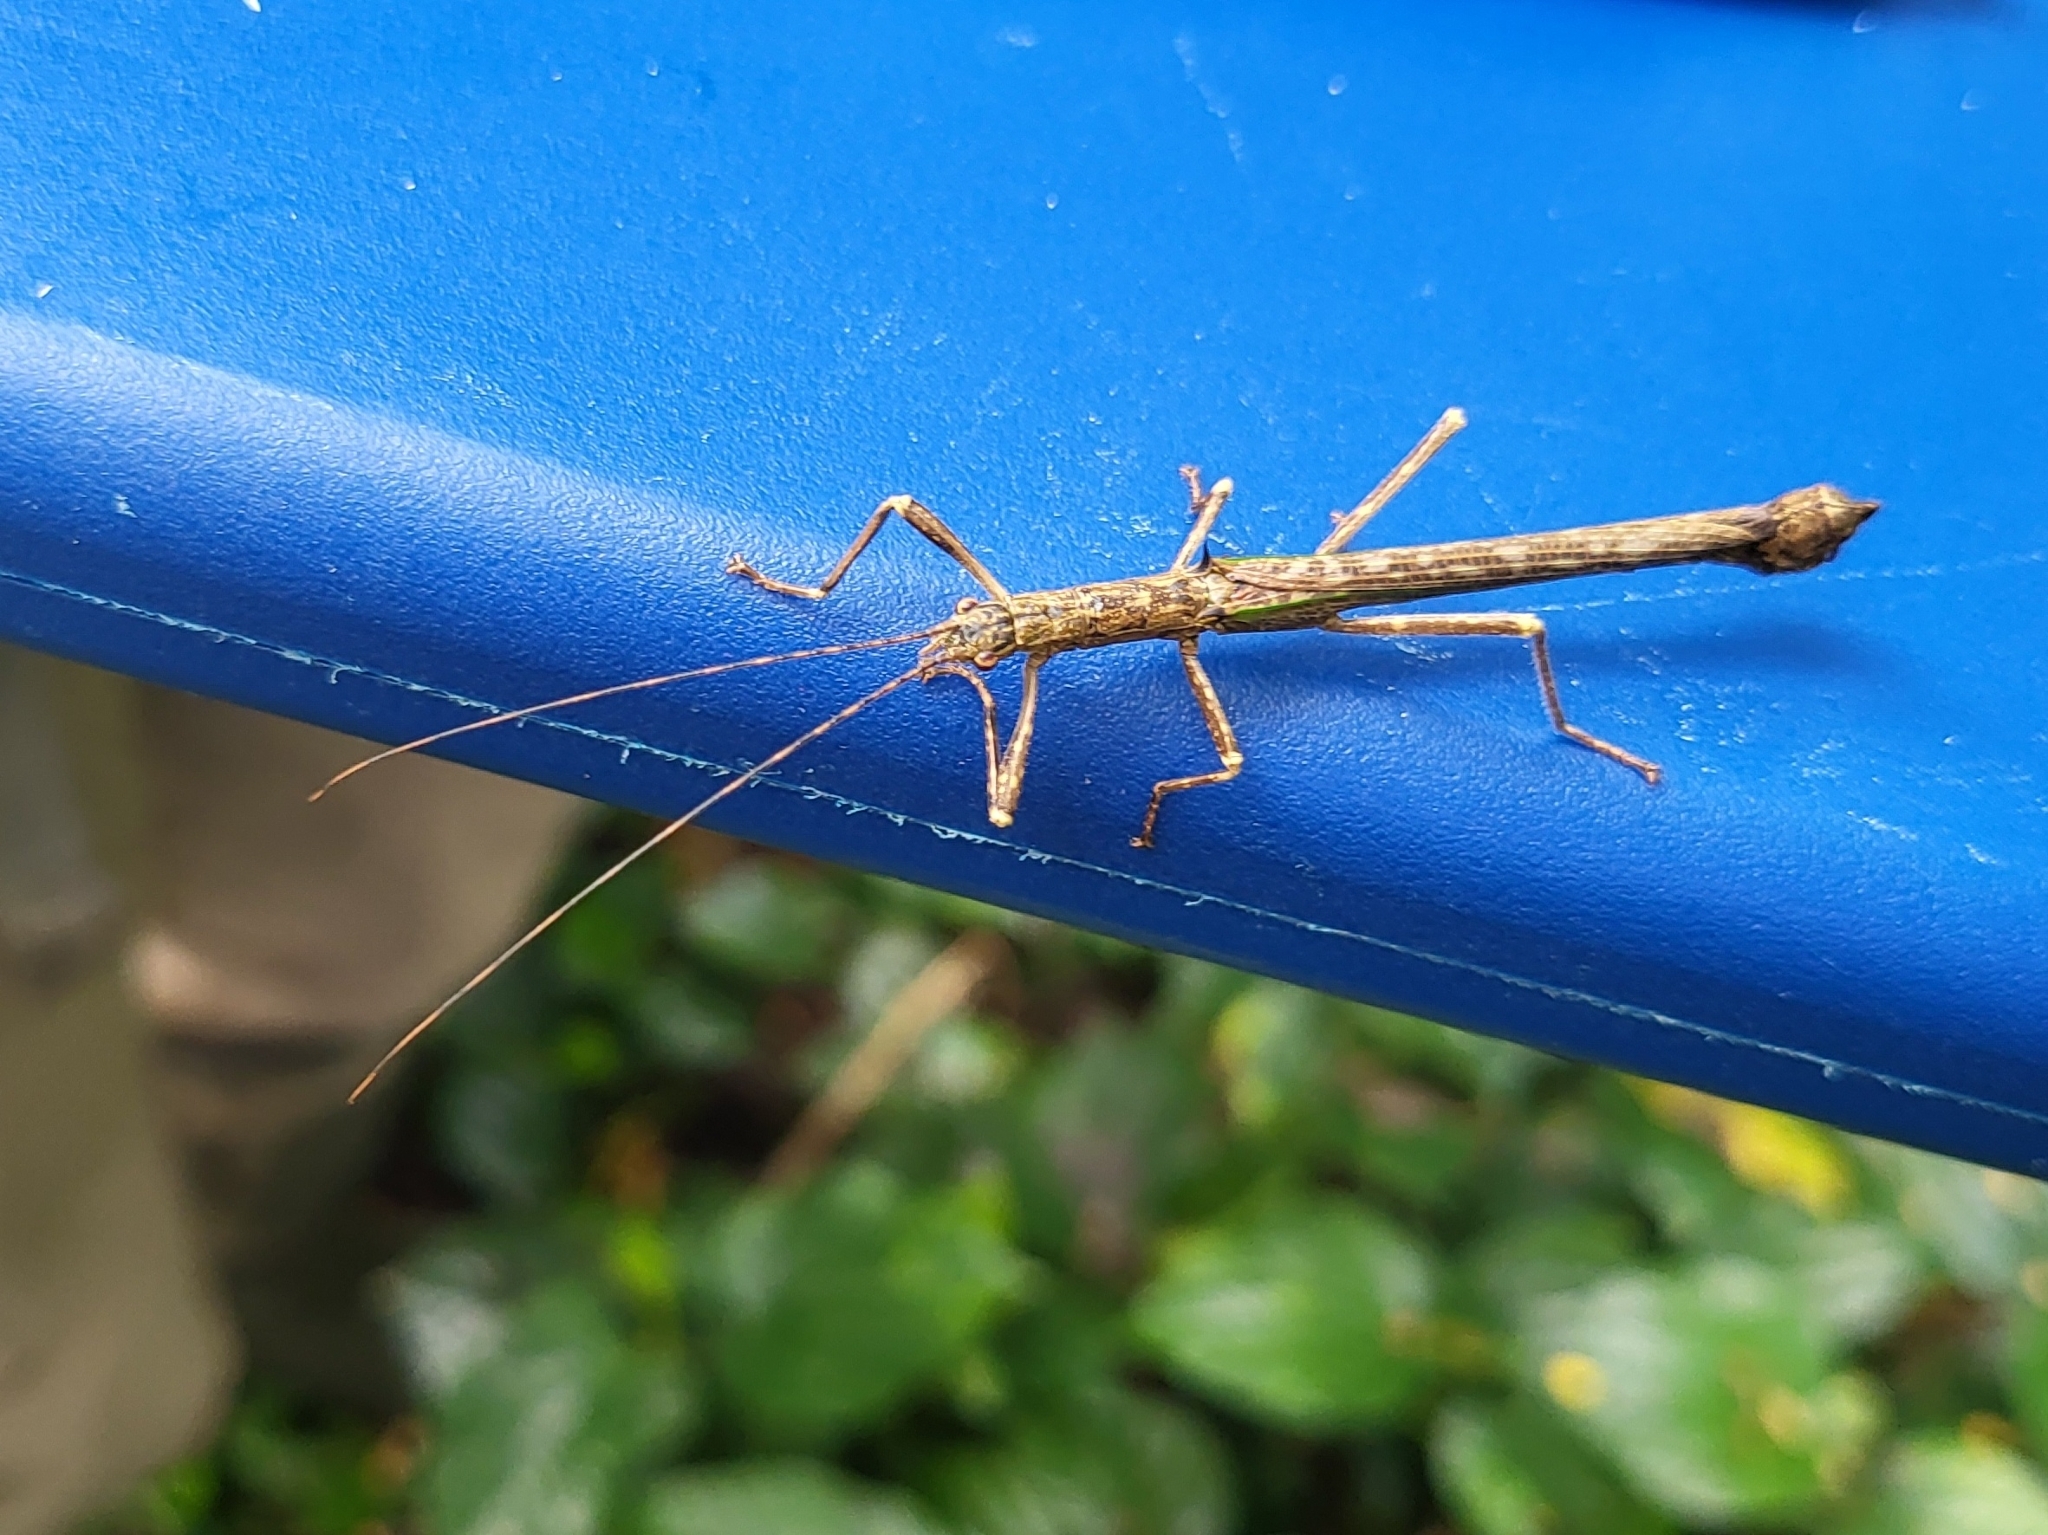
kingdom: Animalia
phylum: Arthropoda
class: Insecta
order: Phasmida
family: Aschiphasmatidae
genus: Presbistus
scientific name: Presbistus peleus
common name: Green striped flying stick
